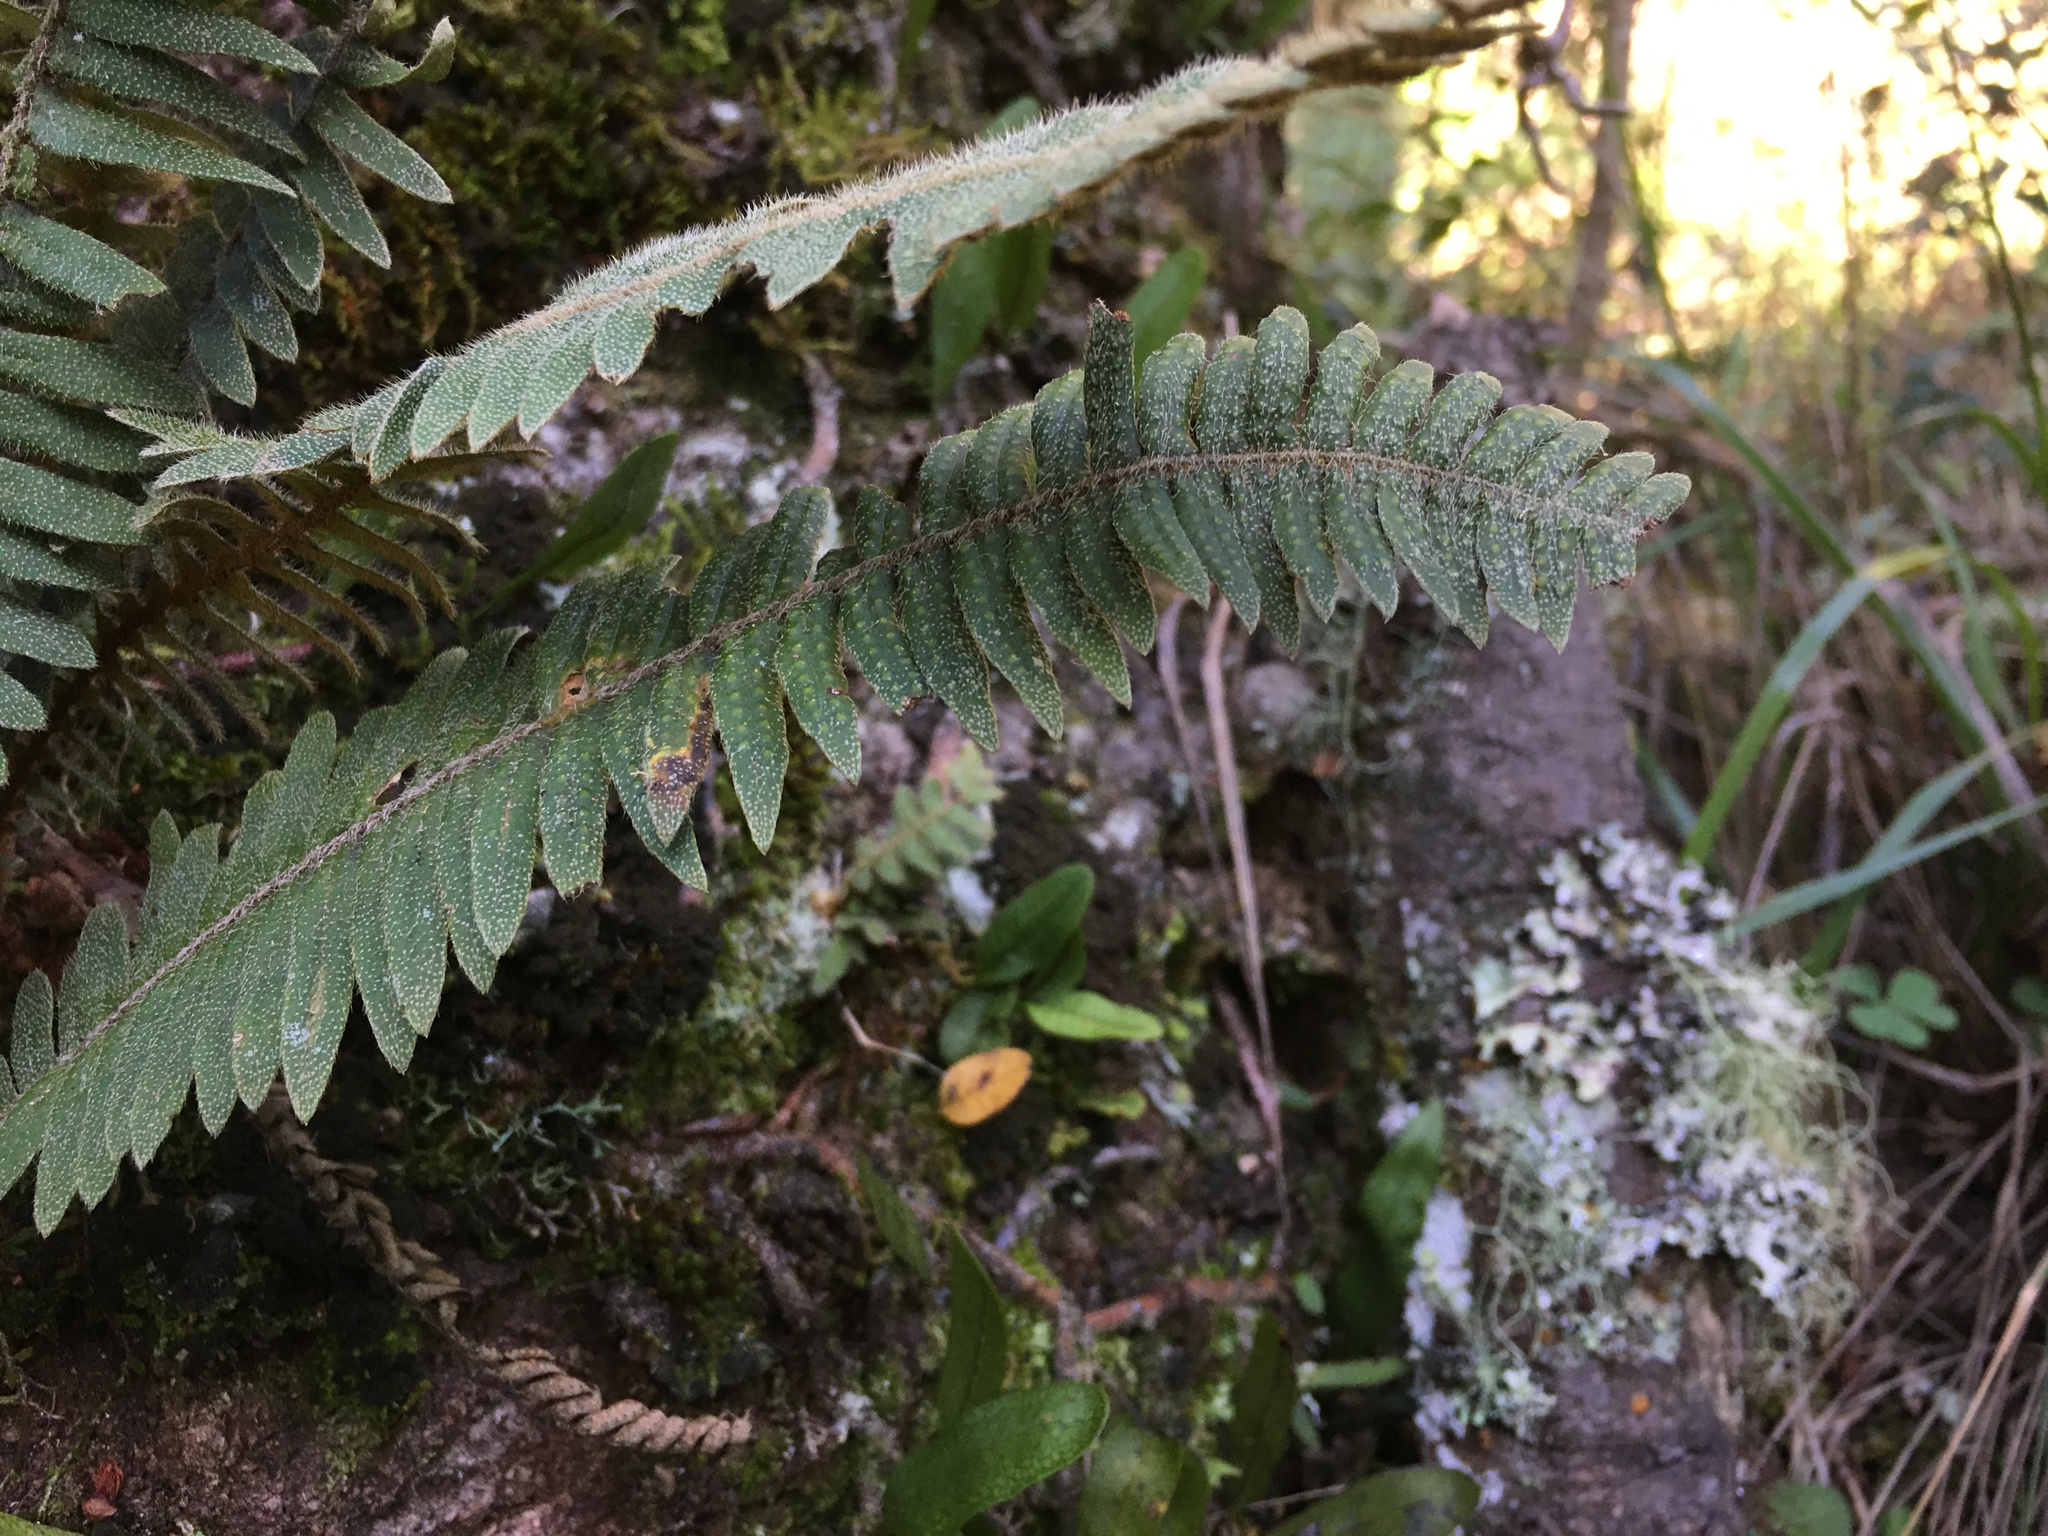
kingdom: Plantae
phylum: Tracheophyta
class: Polypodiopsida
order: Polypodiales
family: Polypodiaceae
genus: Pleopeltis
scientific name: Pleopeltis hirsutissima
